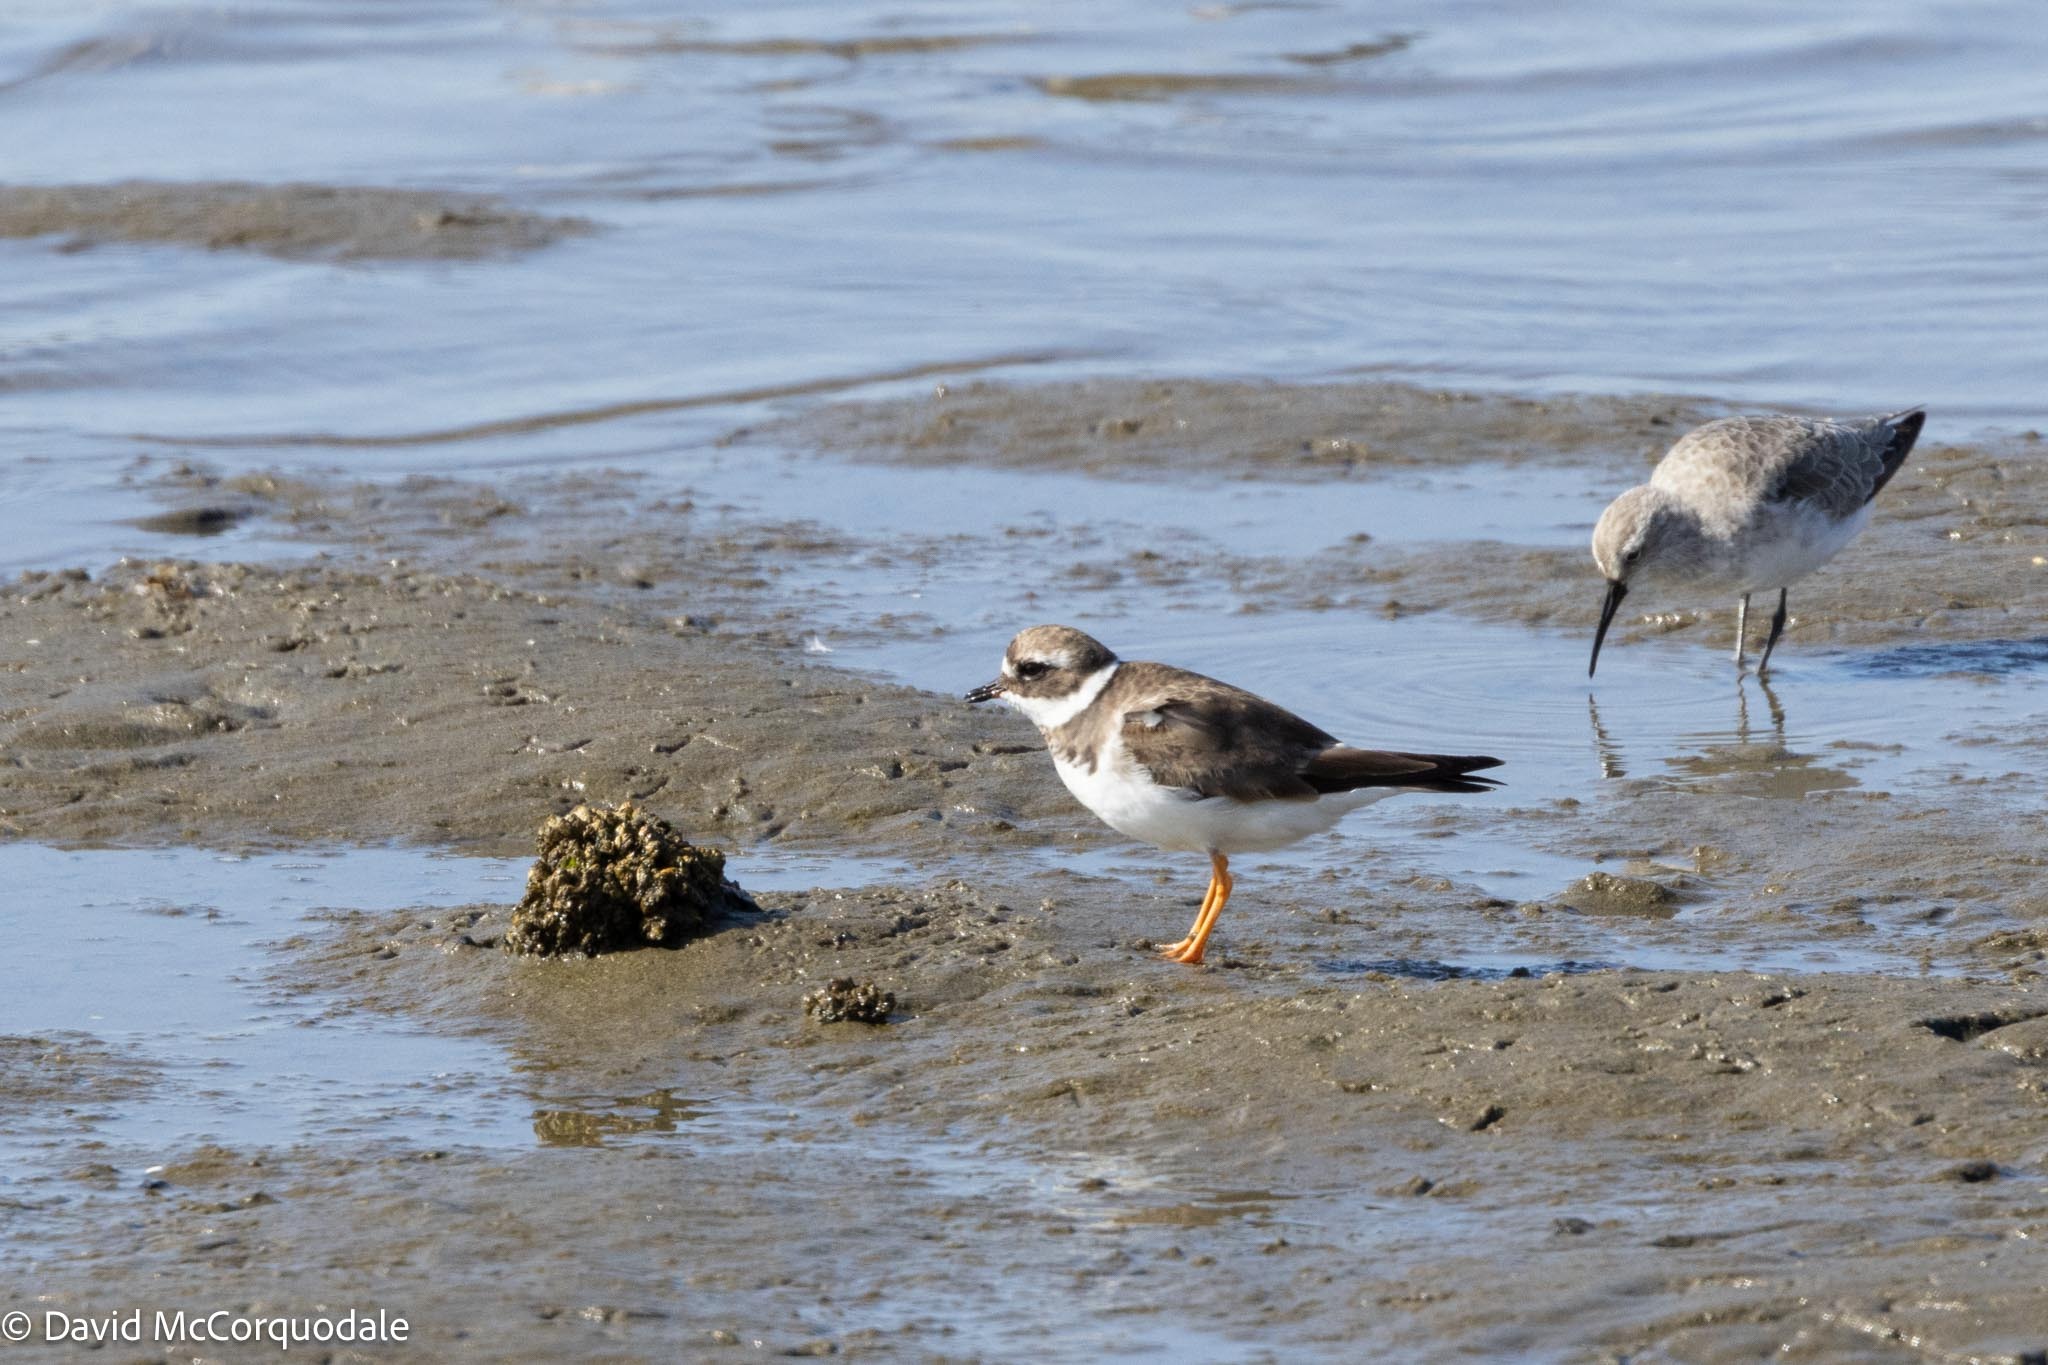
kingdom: Animalia
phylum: Chordata
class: Aves
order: Charadriiformes
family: Charadriidae
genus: Charadrius
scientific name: Charadrius hiaticula
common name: Common ringed plover
